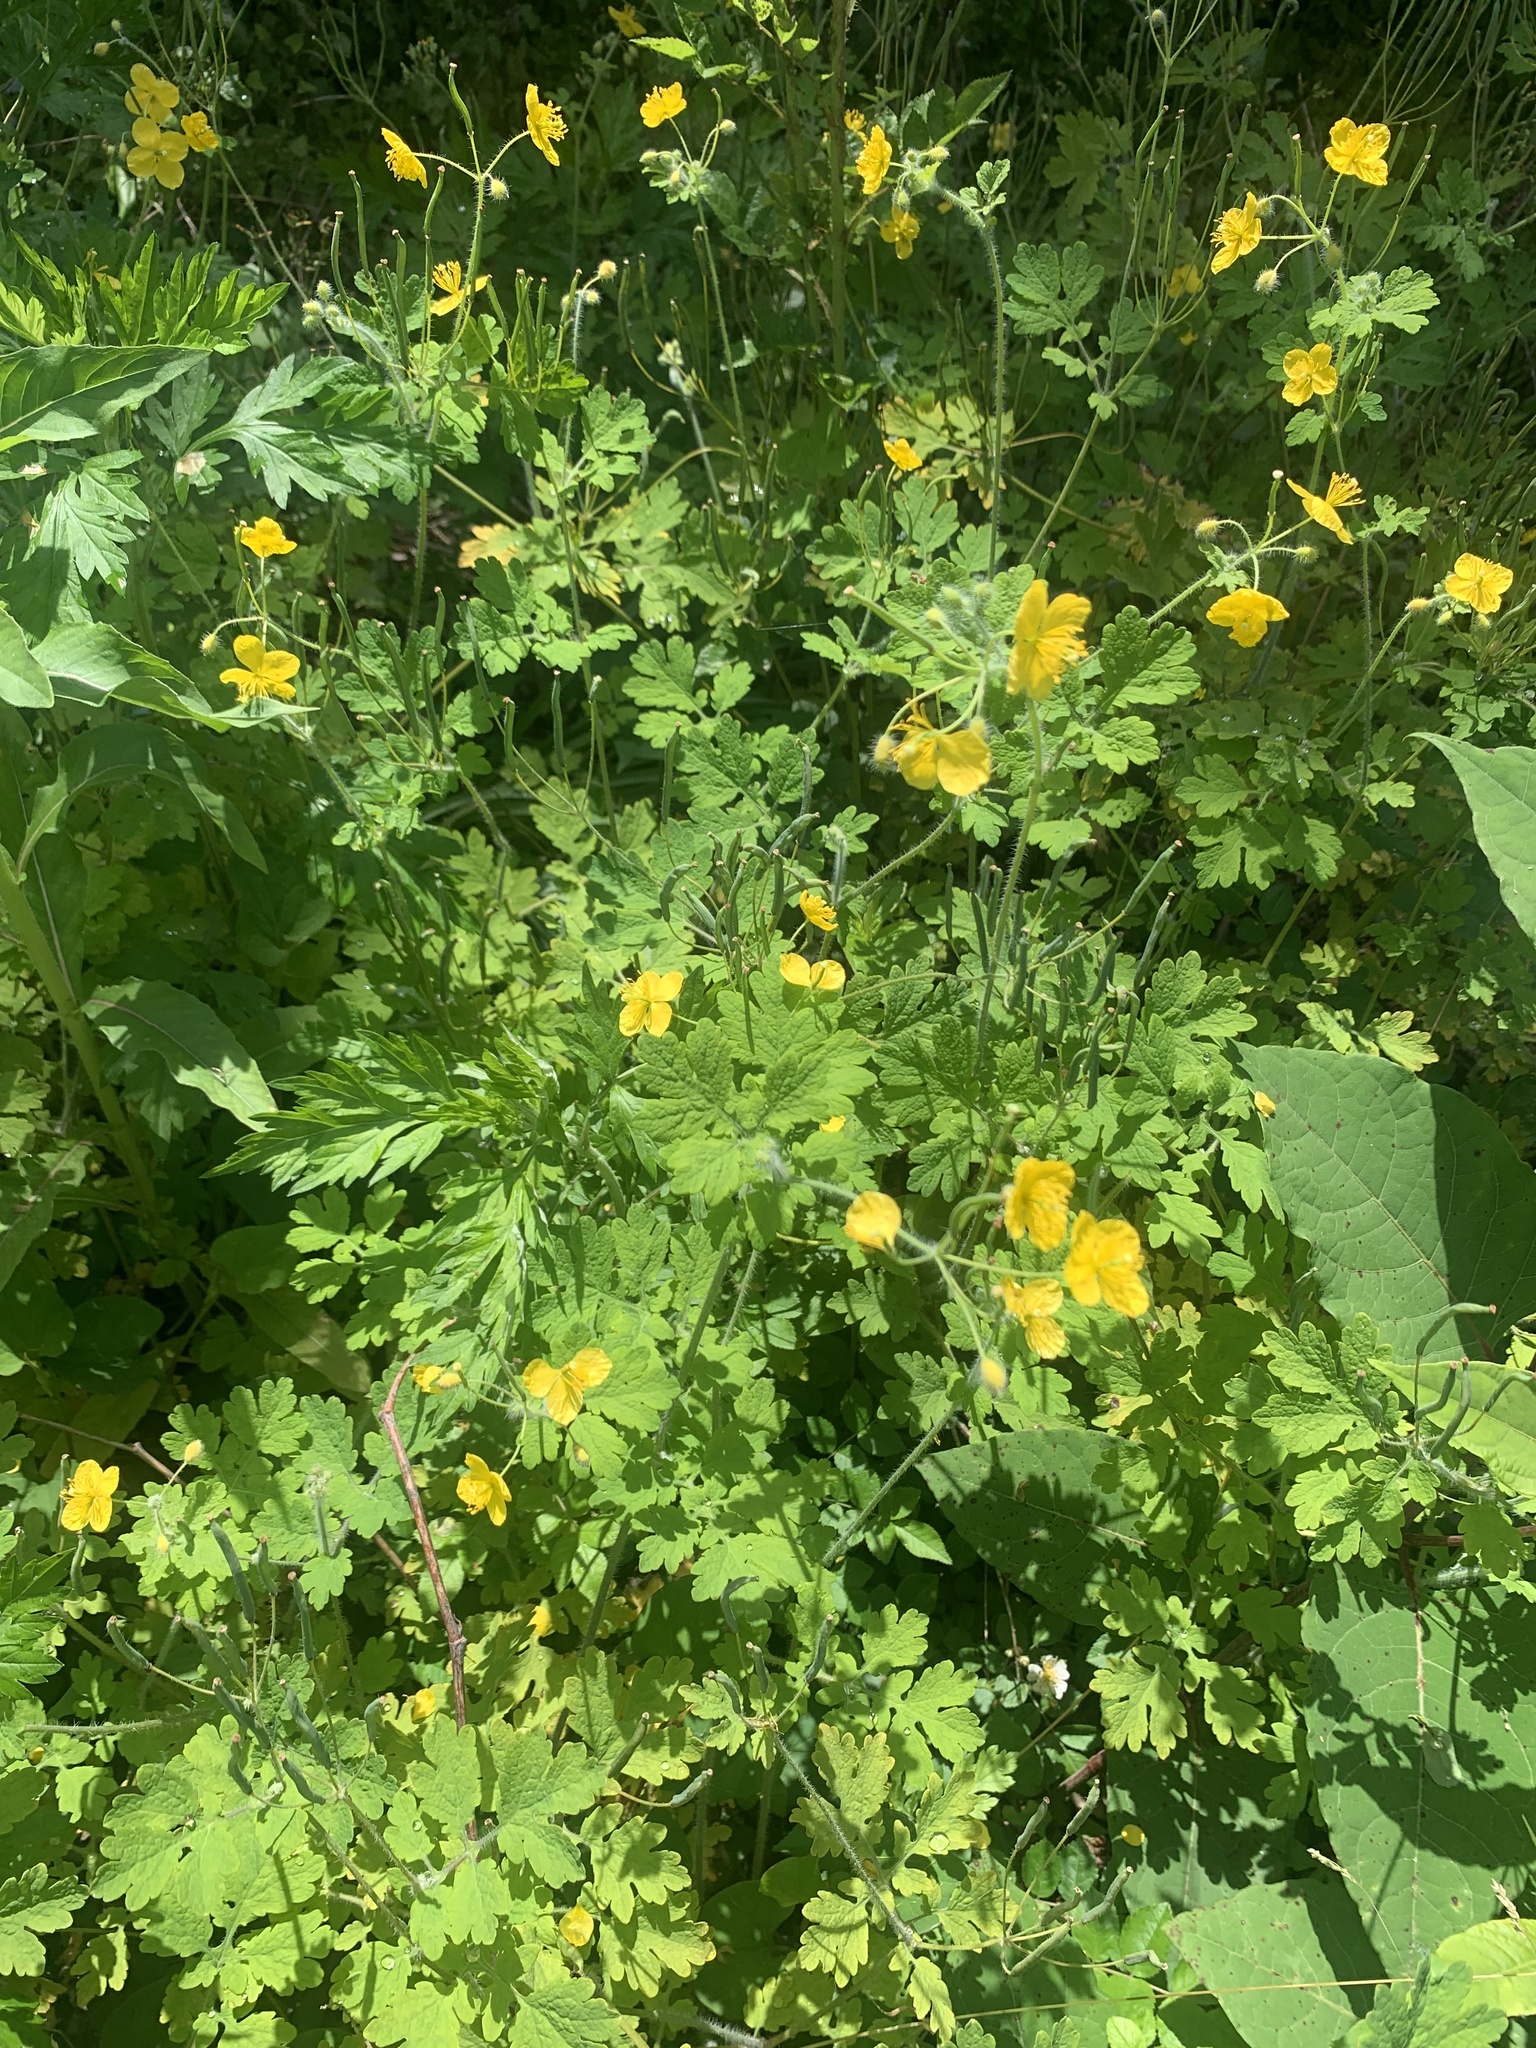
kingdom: Plantae
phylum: Tracheophyta
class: Magnoliopsida
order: Ranunculales
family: Papaveraceae
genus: Chelidonium
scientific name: Chelidonium majus
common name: Greater celandine
